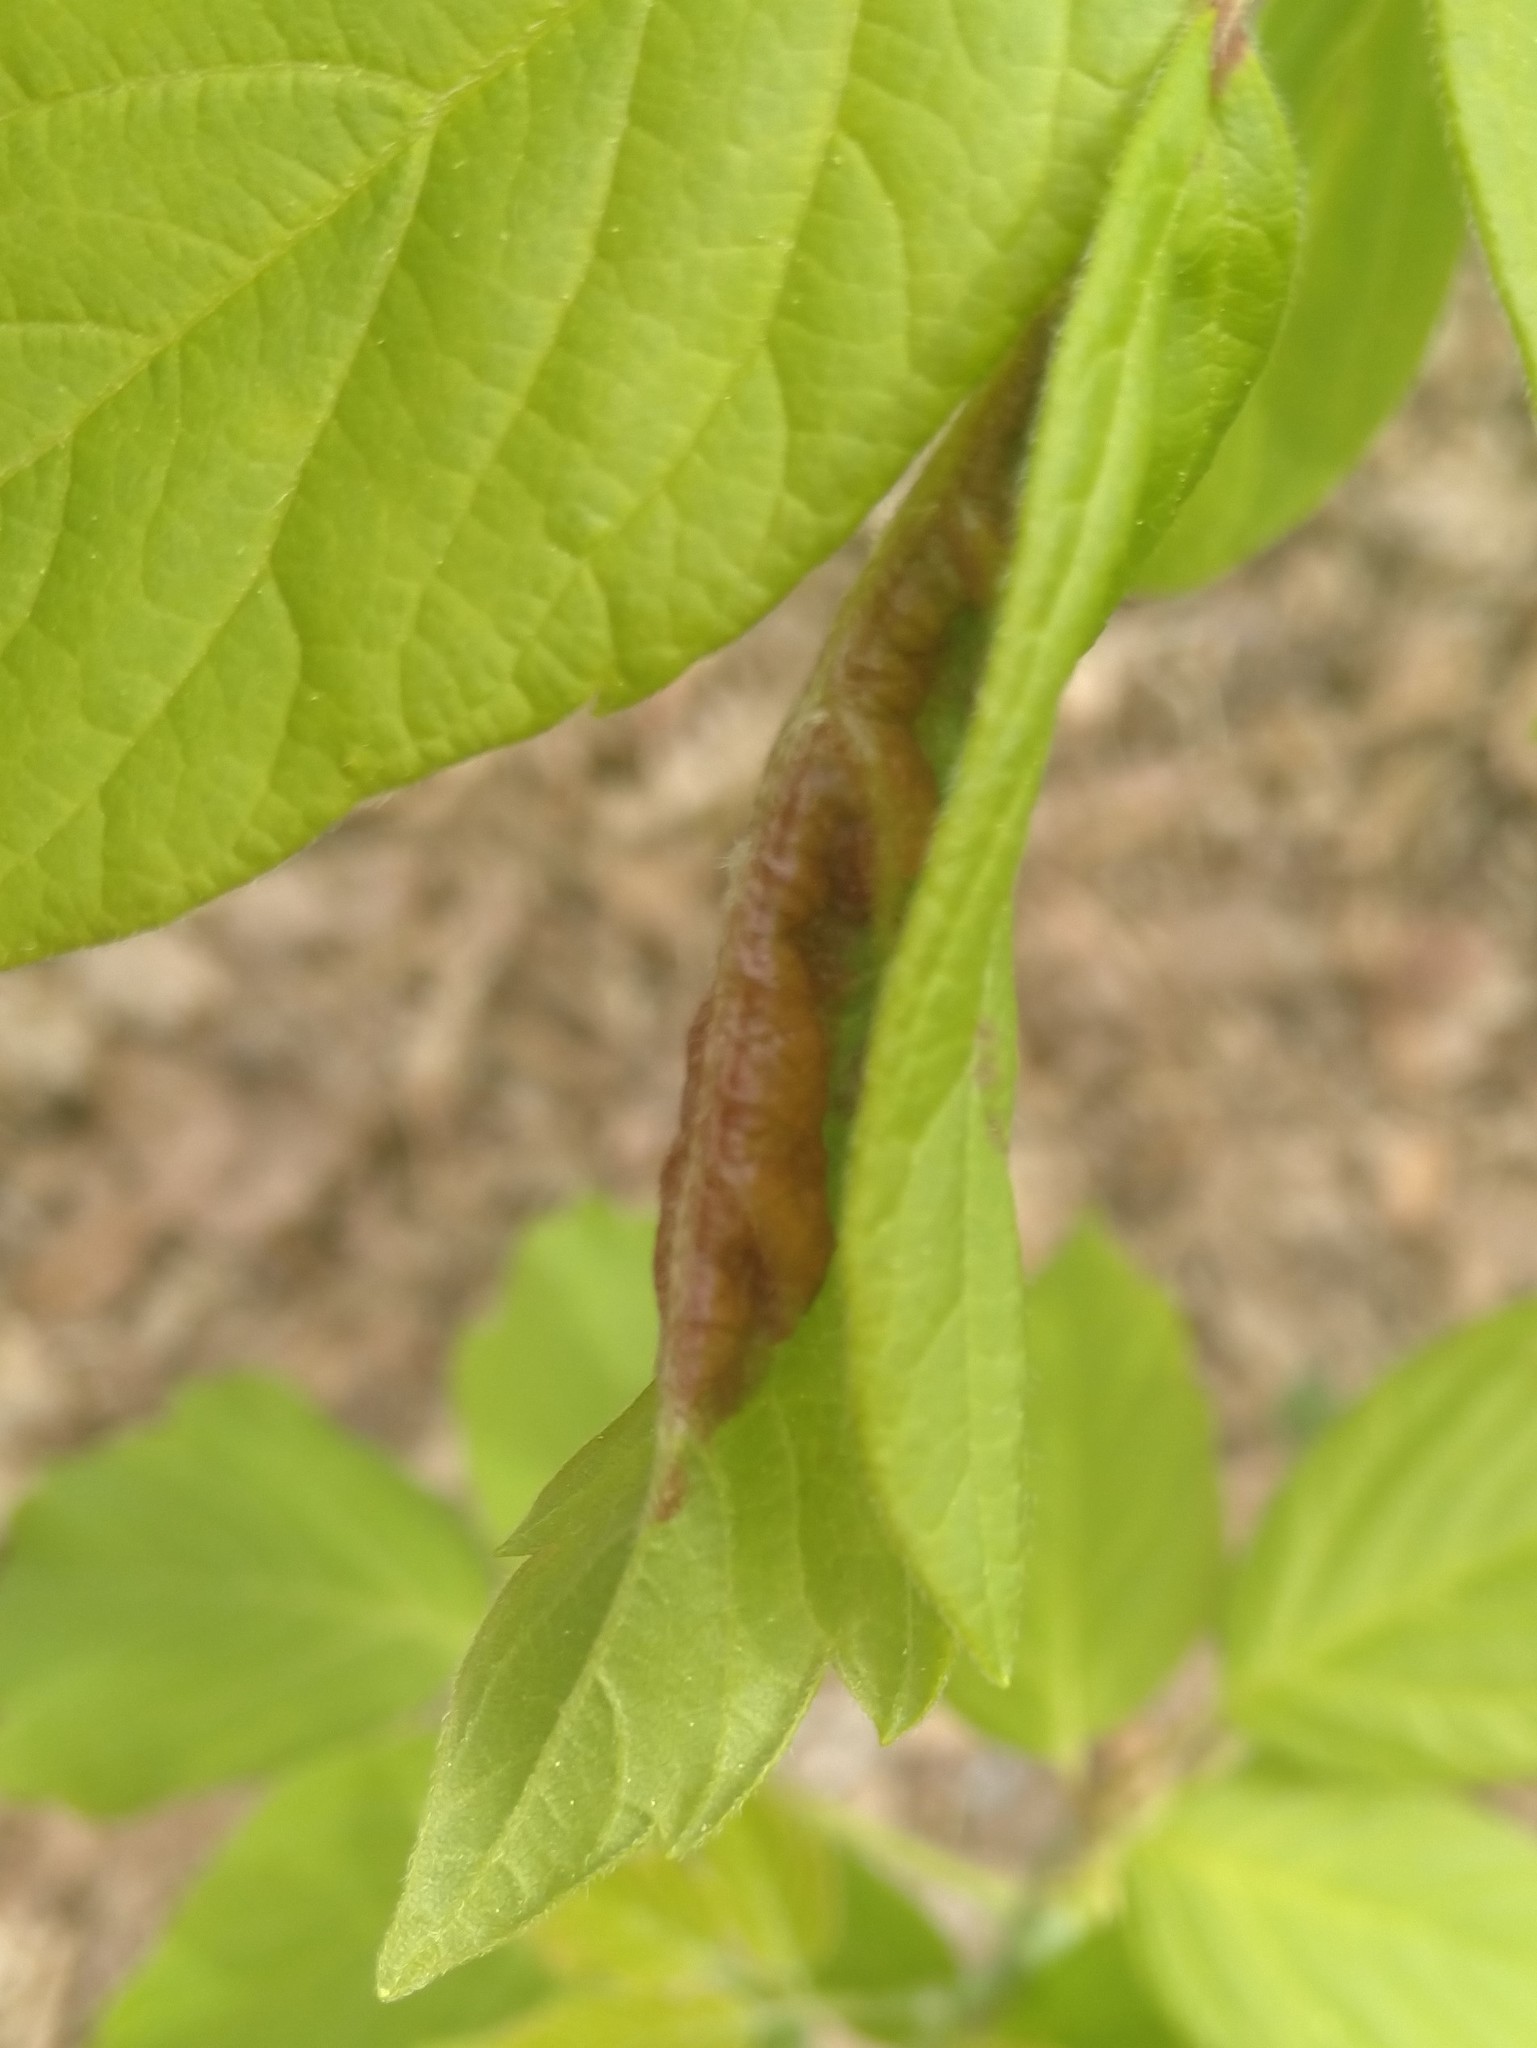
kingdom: Animalia
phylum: Arthropoda
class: Insecta
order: Diptera
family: Cecidomyiidae
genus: Contarinia
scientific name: Contarinia negundinis
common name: Boxelder budgall midge
